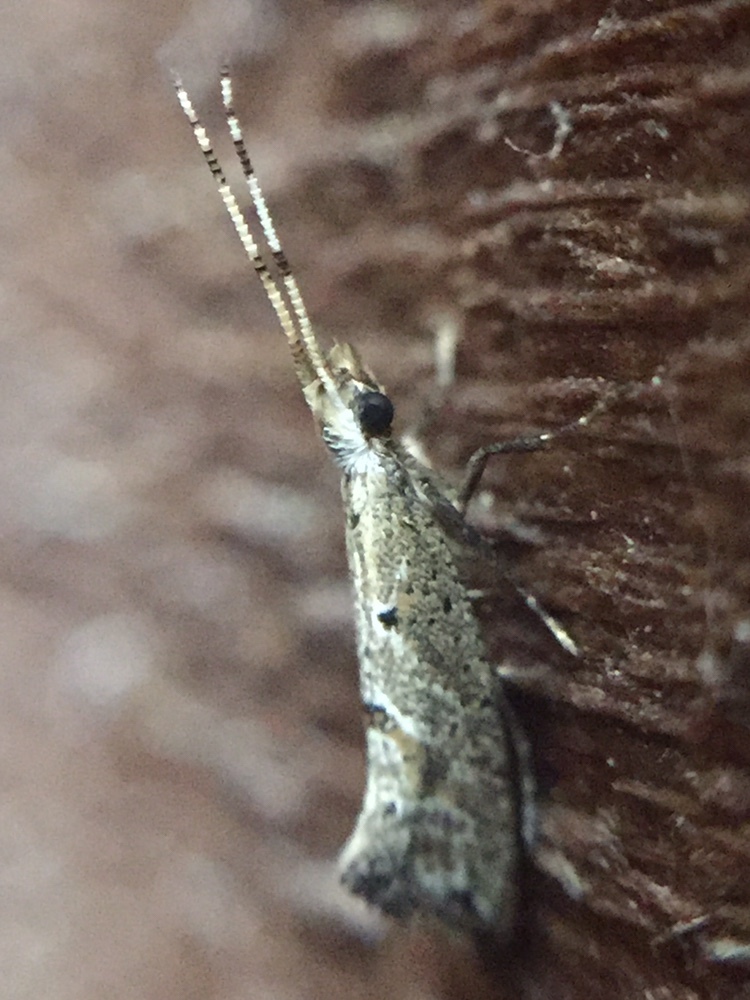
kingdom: Animalia
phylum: Arthropoda
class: Insecta
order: Lepidoptera
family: Plutellidae
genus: Leuroperna
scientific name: Leuroperna sera
